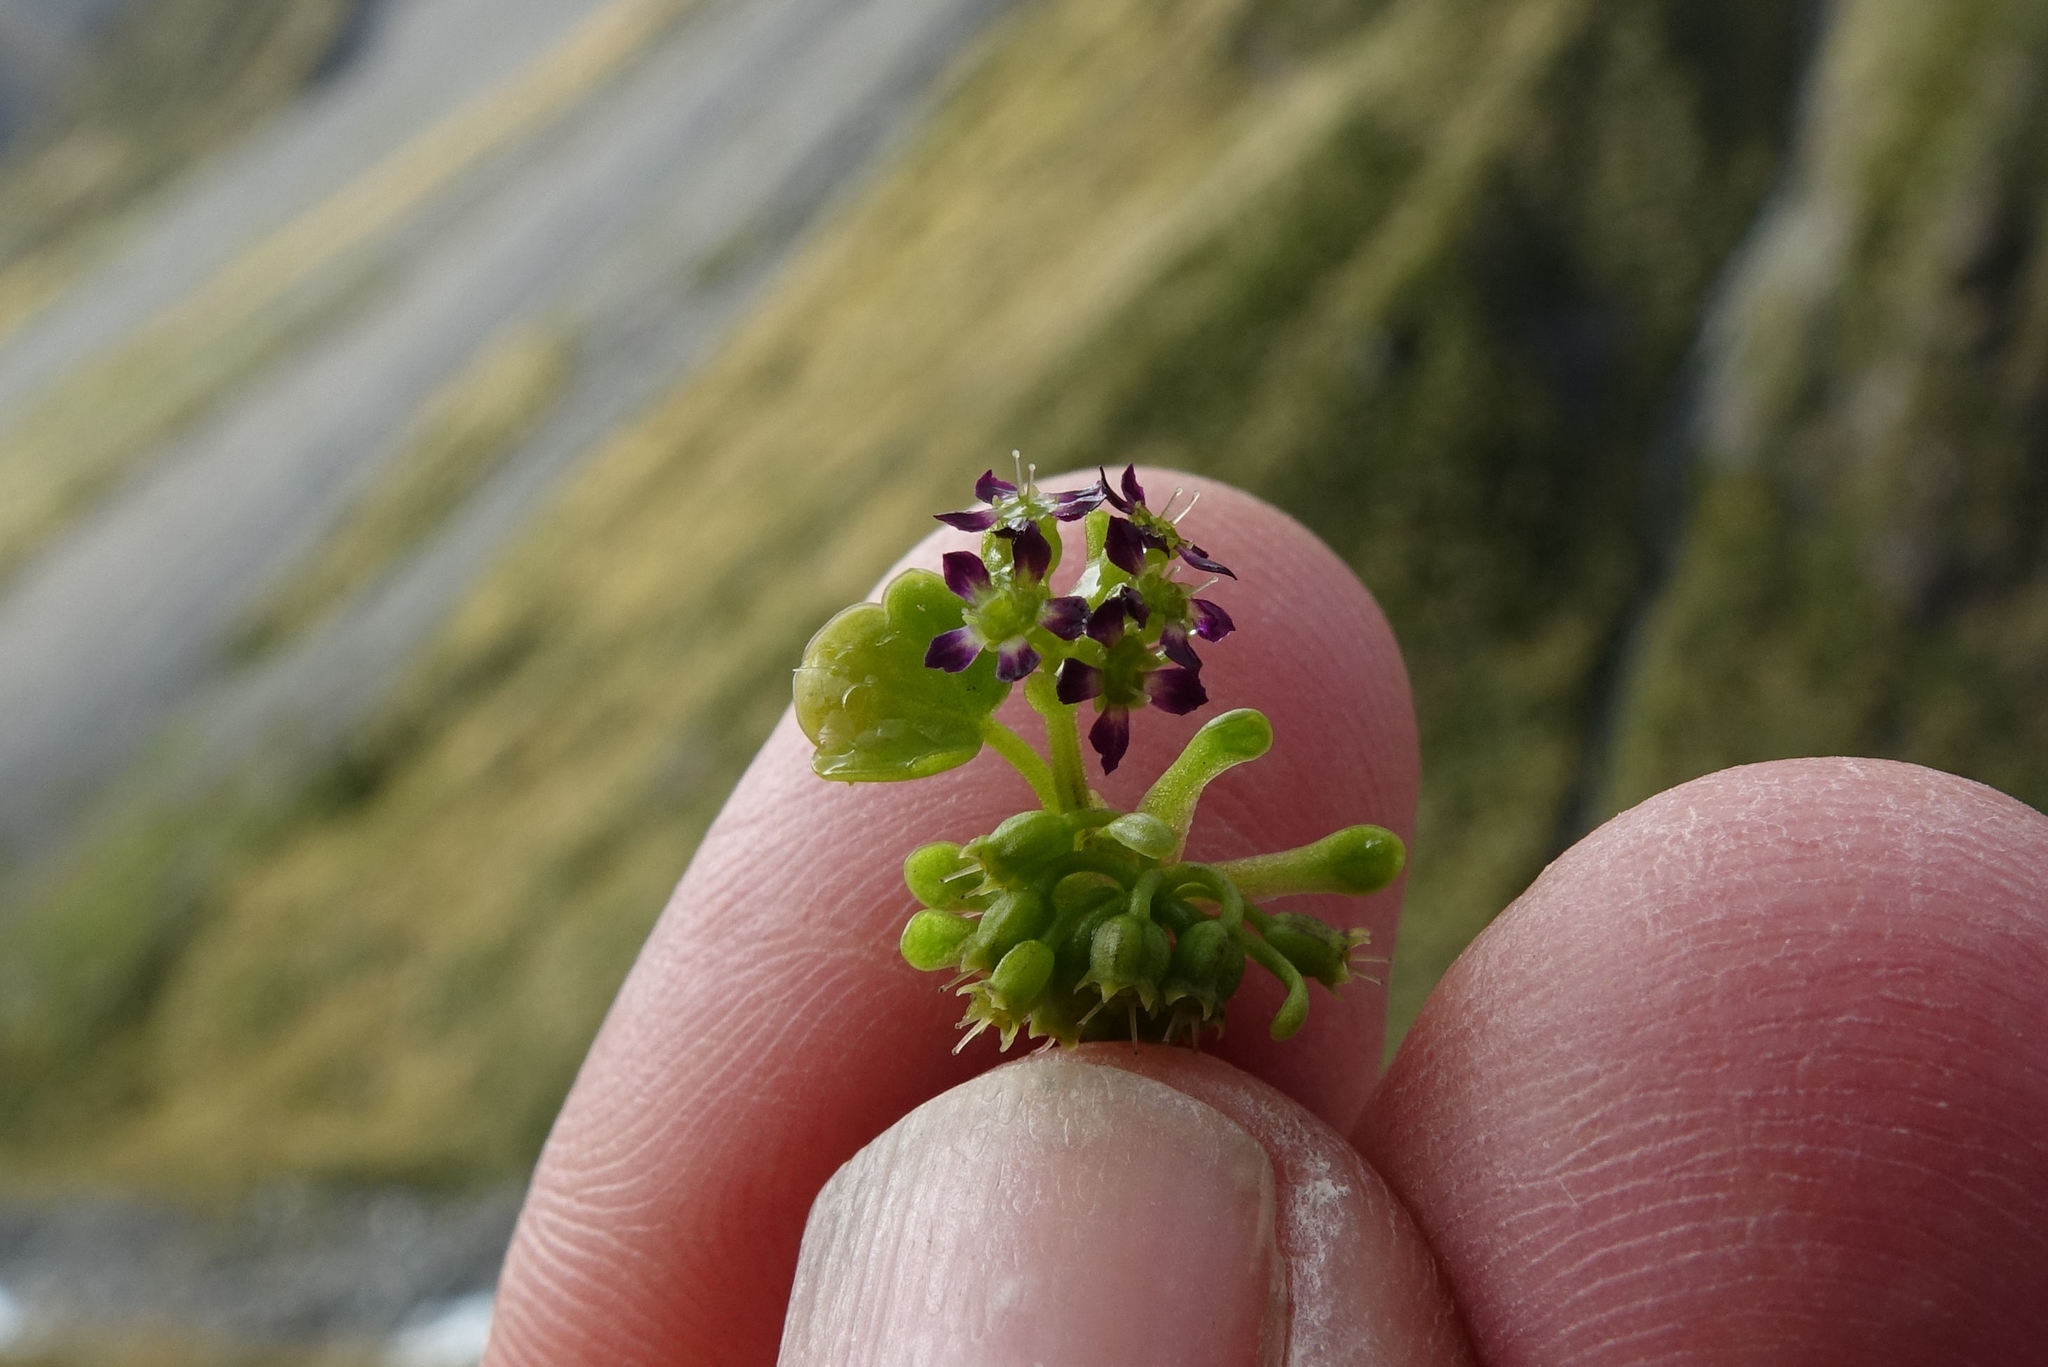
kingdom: Plantae
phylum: Tracheophyta
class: Magnoliopsida
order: Apiales
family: Apiaceae
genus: Azorella
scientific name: Azorella haastii
